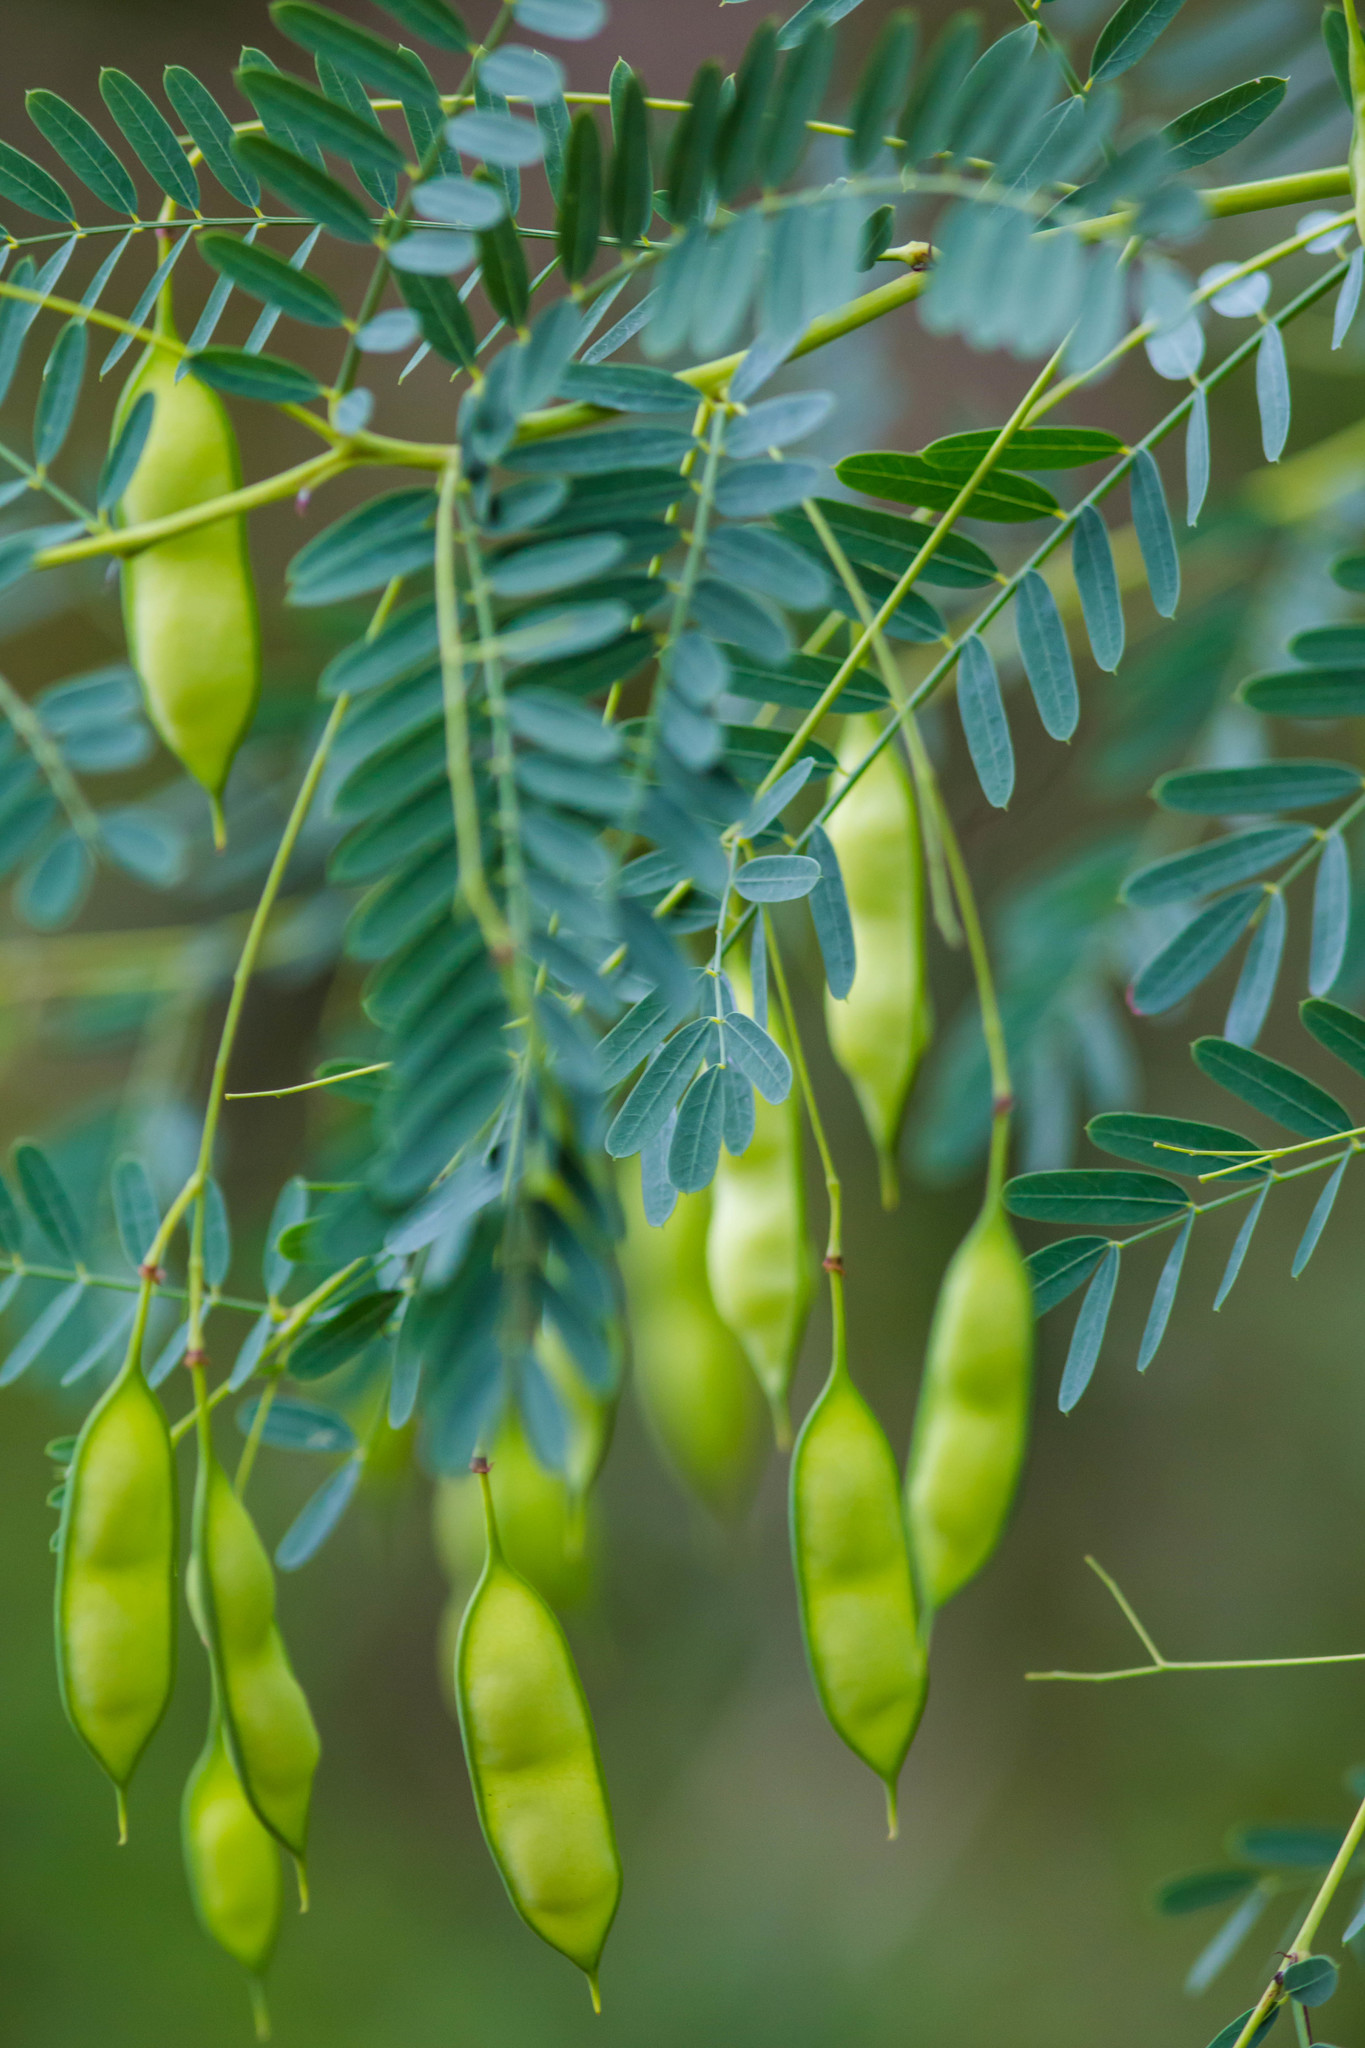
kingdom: Plantae
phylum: Tracheophyta
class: Magnoliopsida
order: Fabales
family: Fabaceae
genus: Sesbania
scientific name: Sesbania vesicaria
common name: Bagpod
